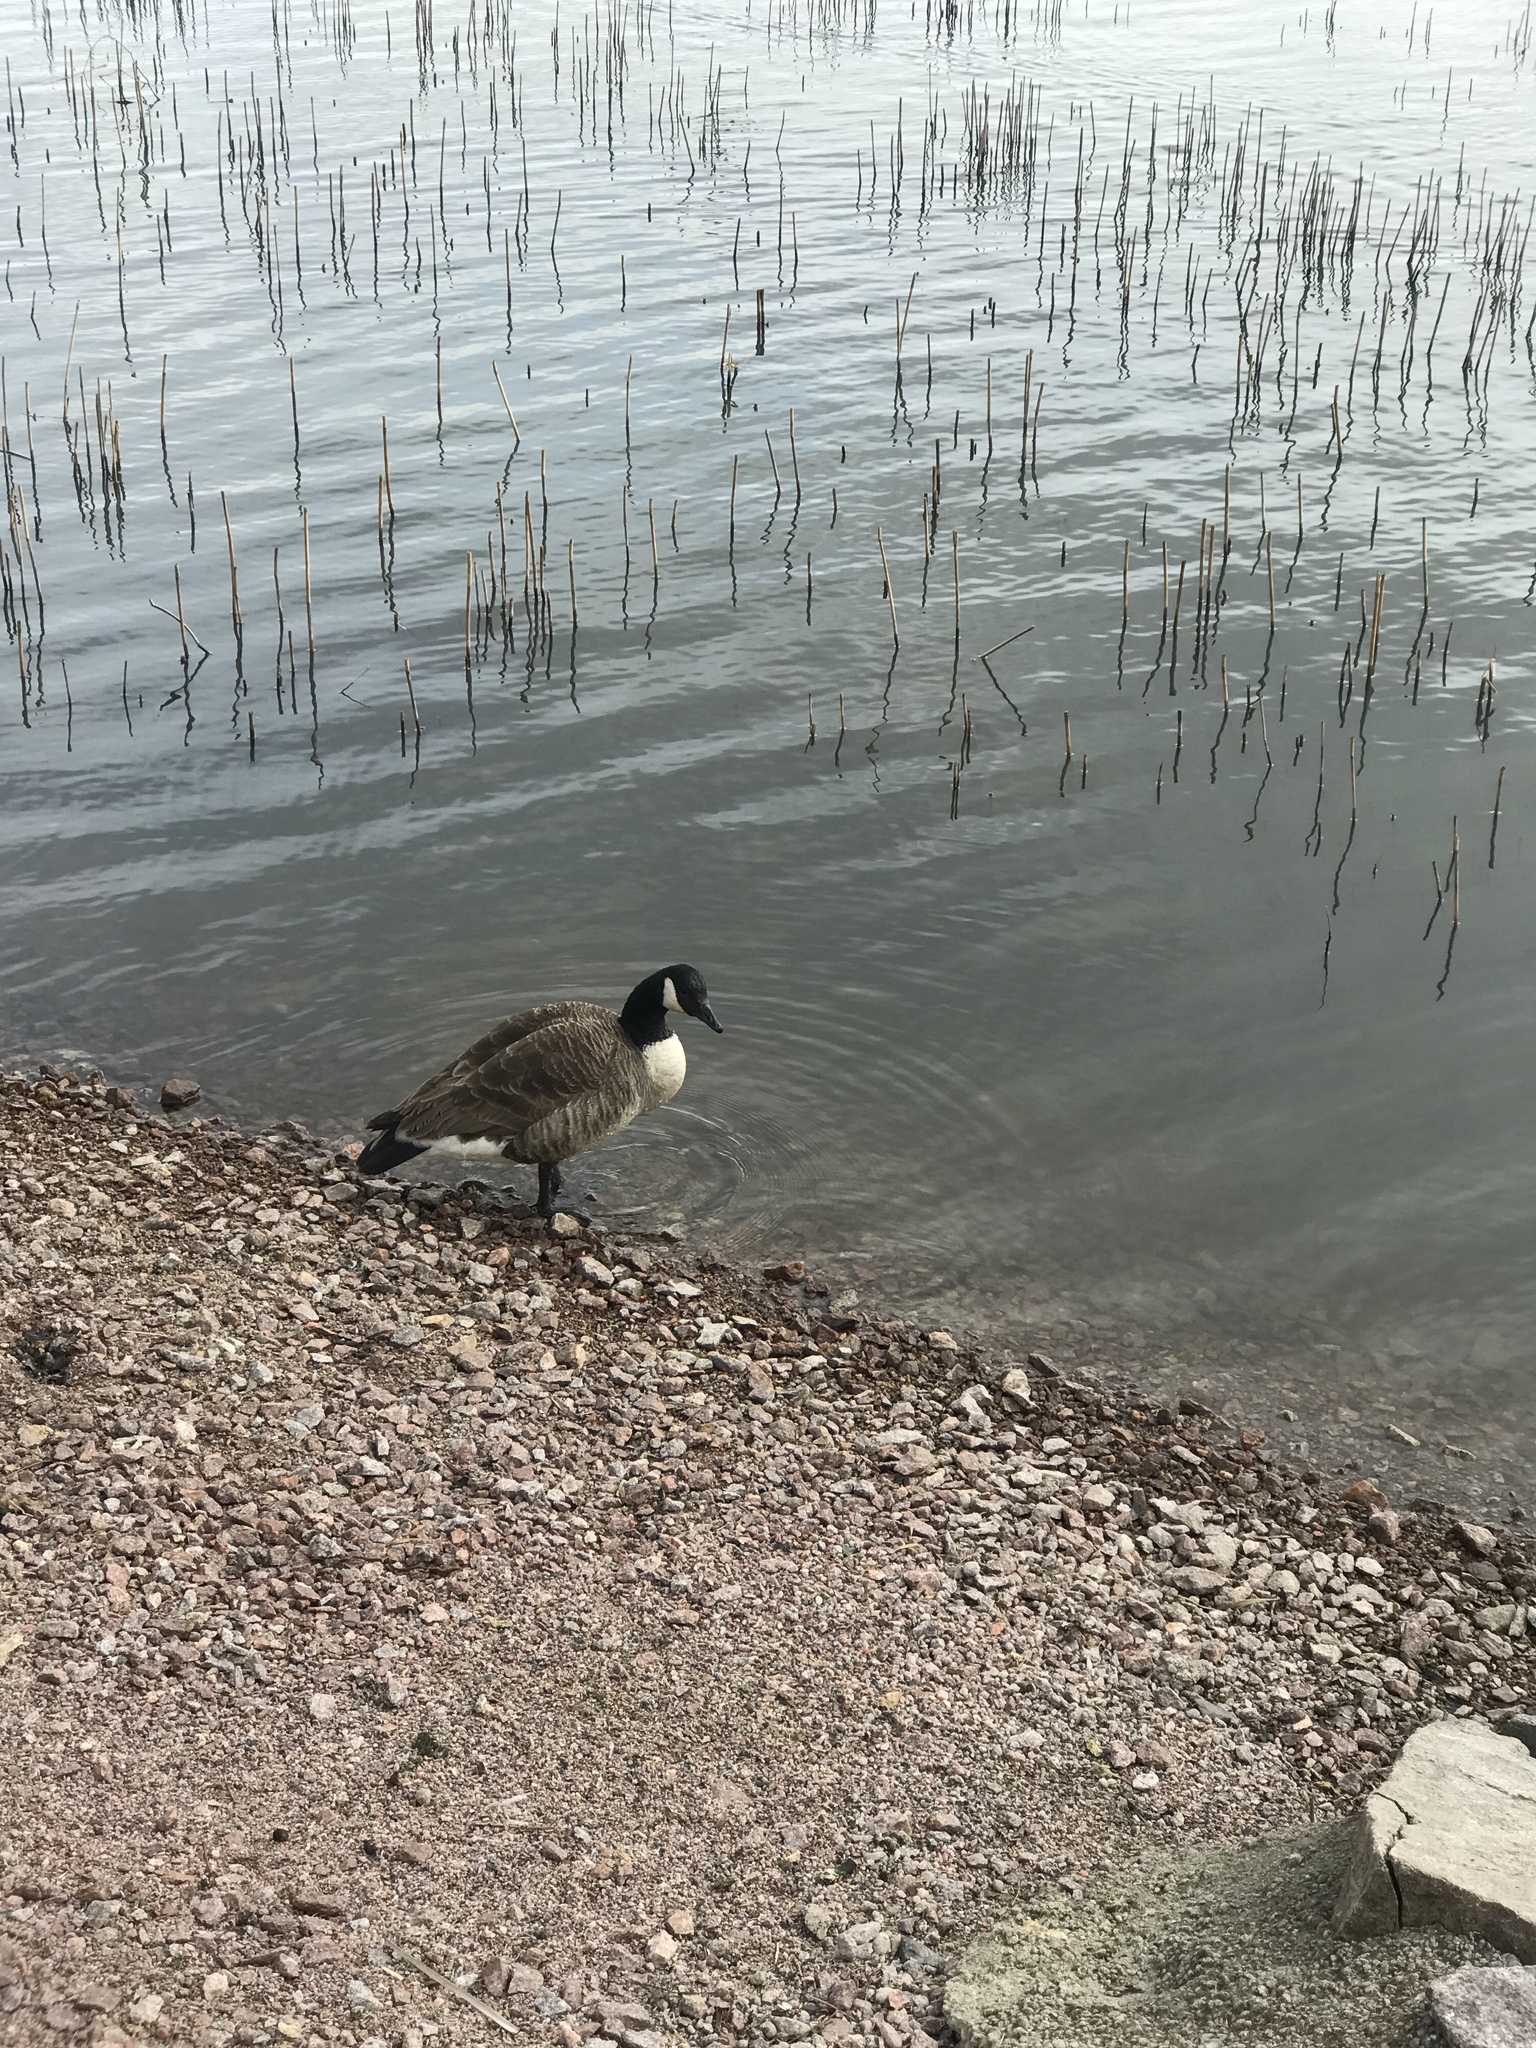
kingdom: Animalia
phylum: Chordata
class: Aves
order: Anseriformes
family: Anatidae
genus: Branta
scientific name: Branta canadensis
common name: Canada goose
